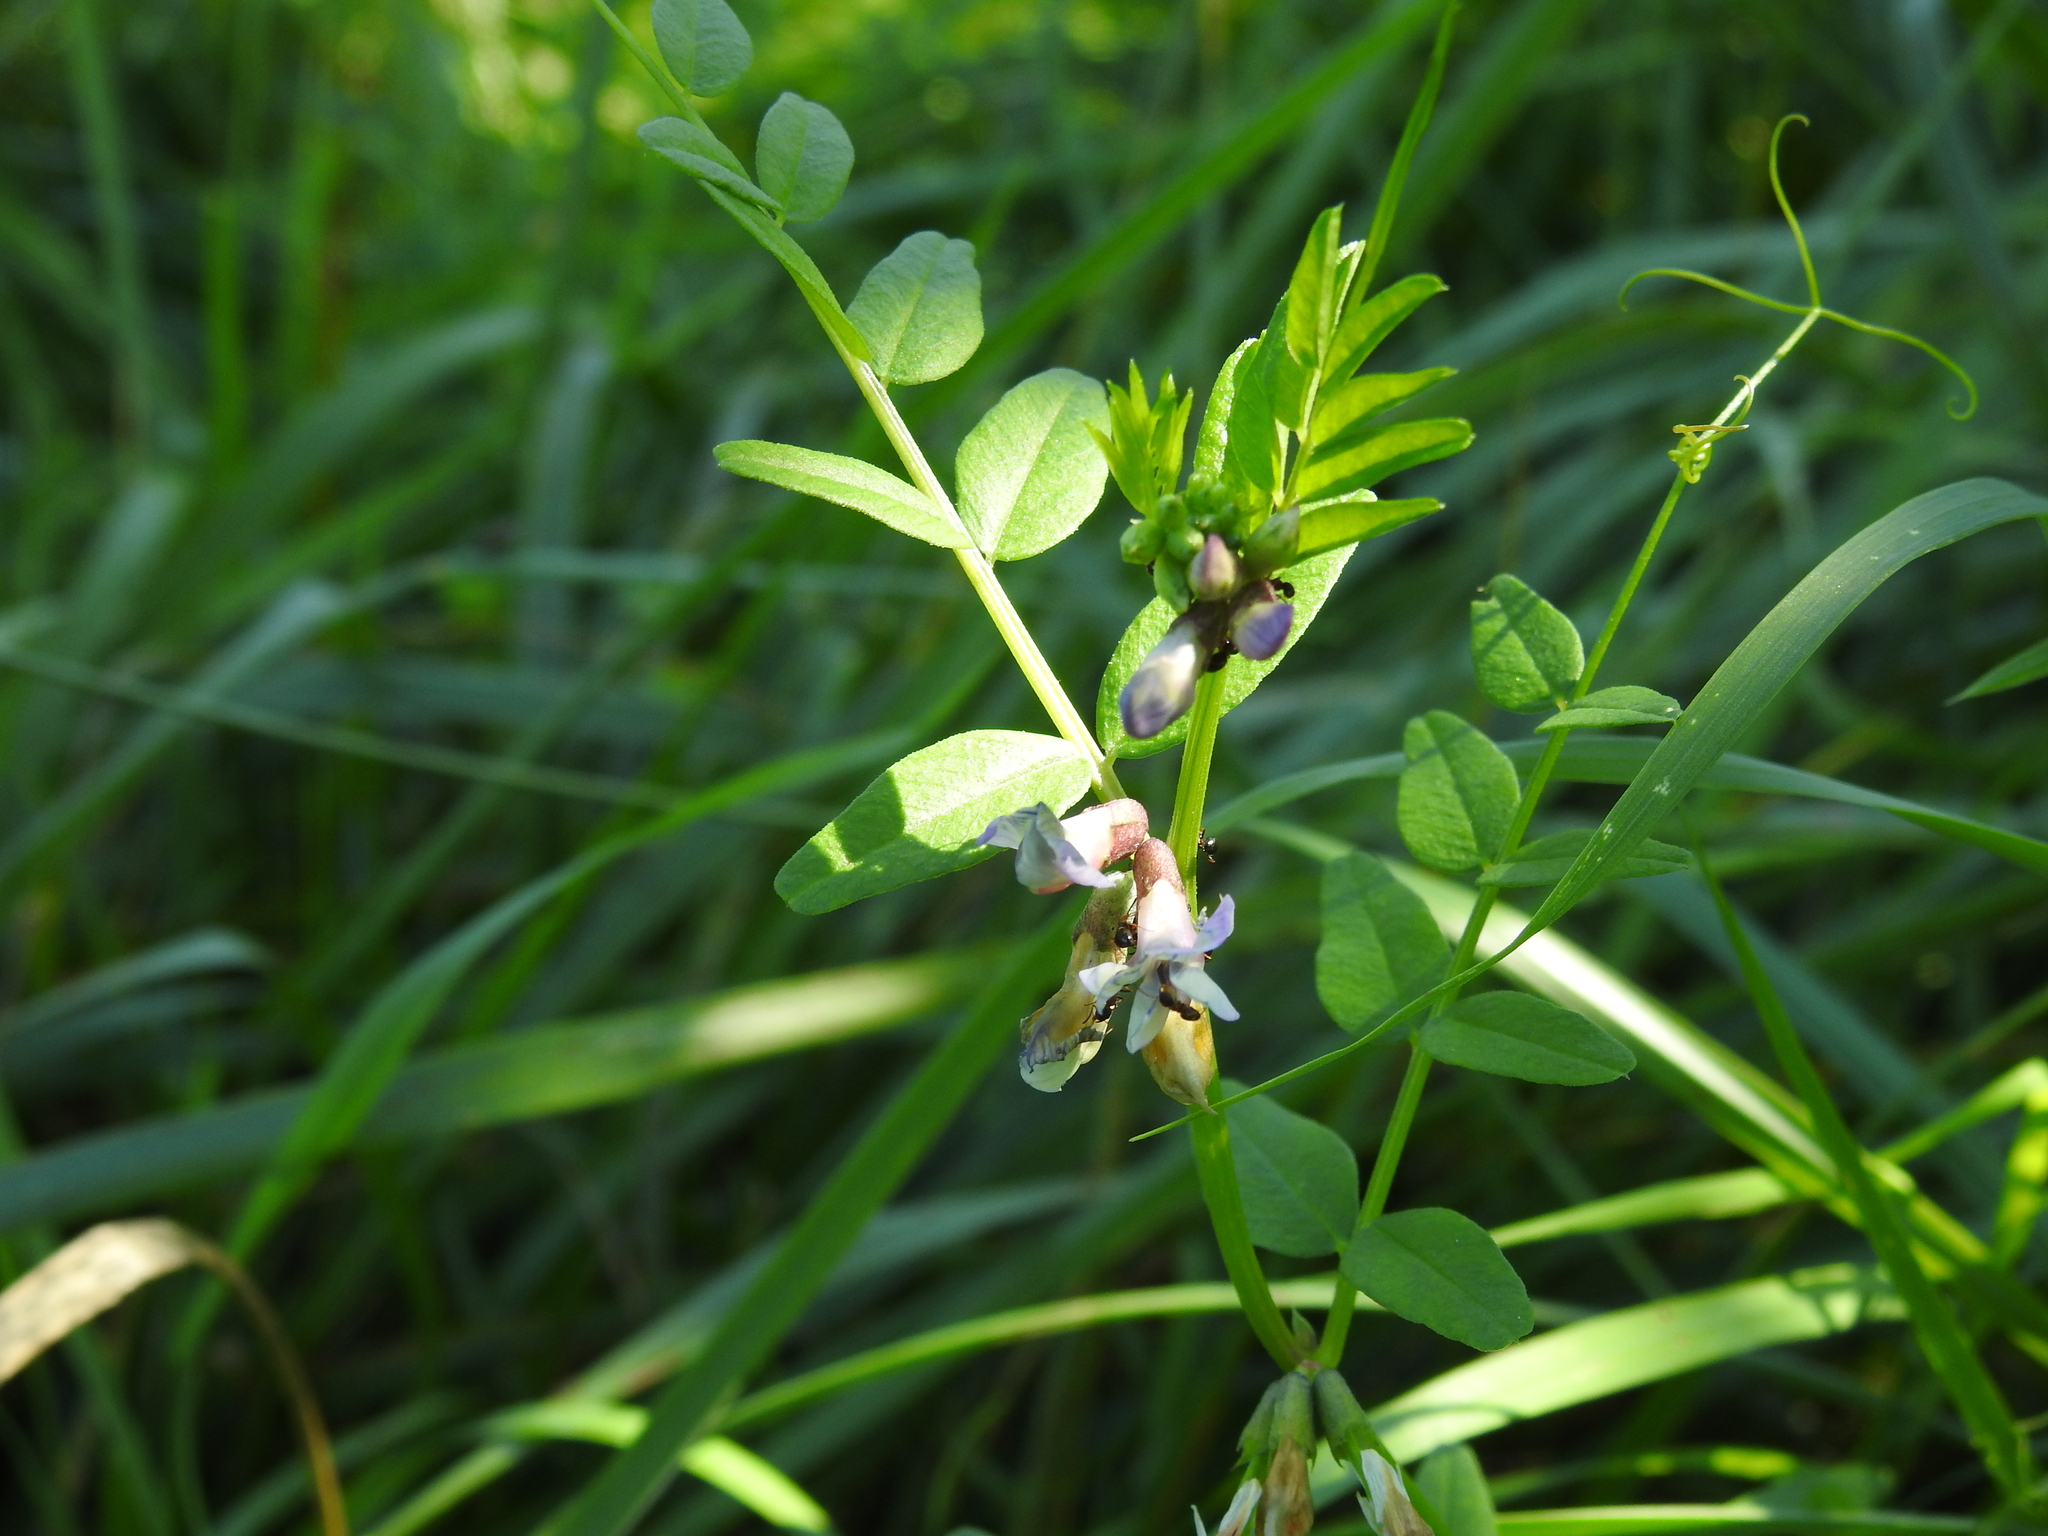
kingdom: Plantae
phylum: Tracheophyta
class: Magnoliopsida
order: Fabales
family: Fabaceae
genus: Vicia
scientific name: Vicia sepium
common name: Bush vetch
